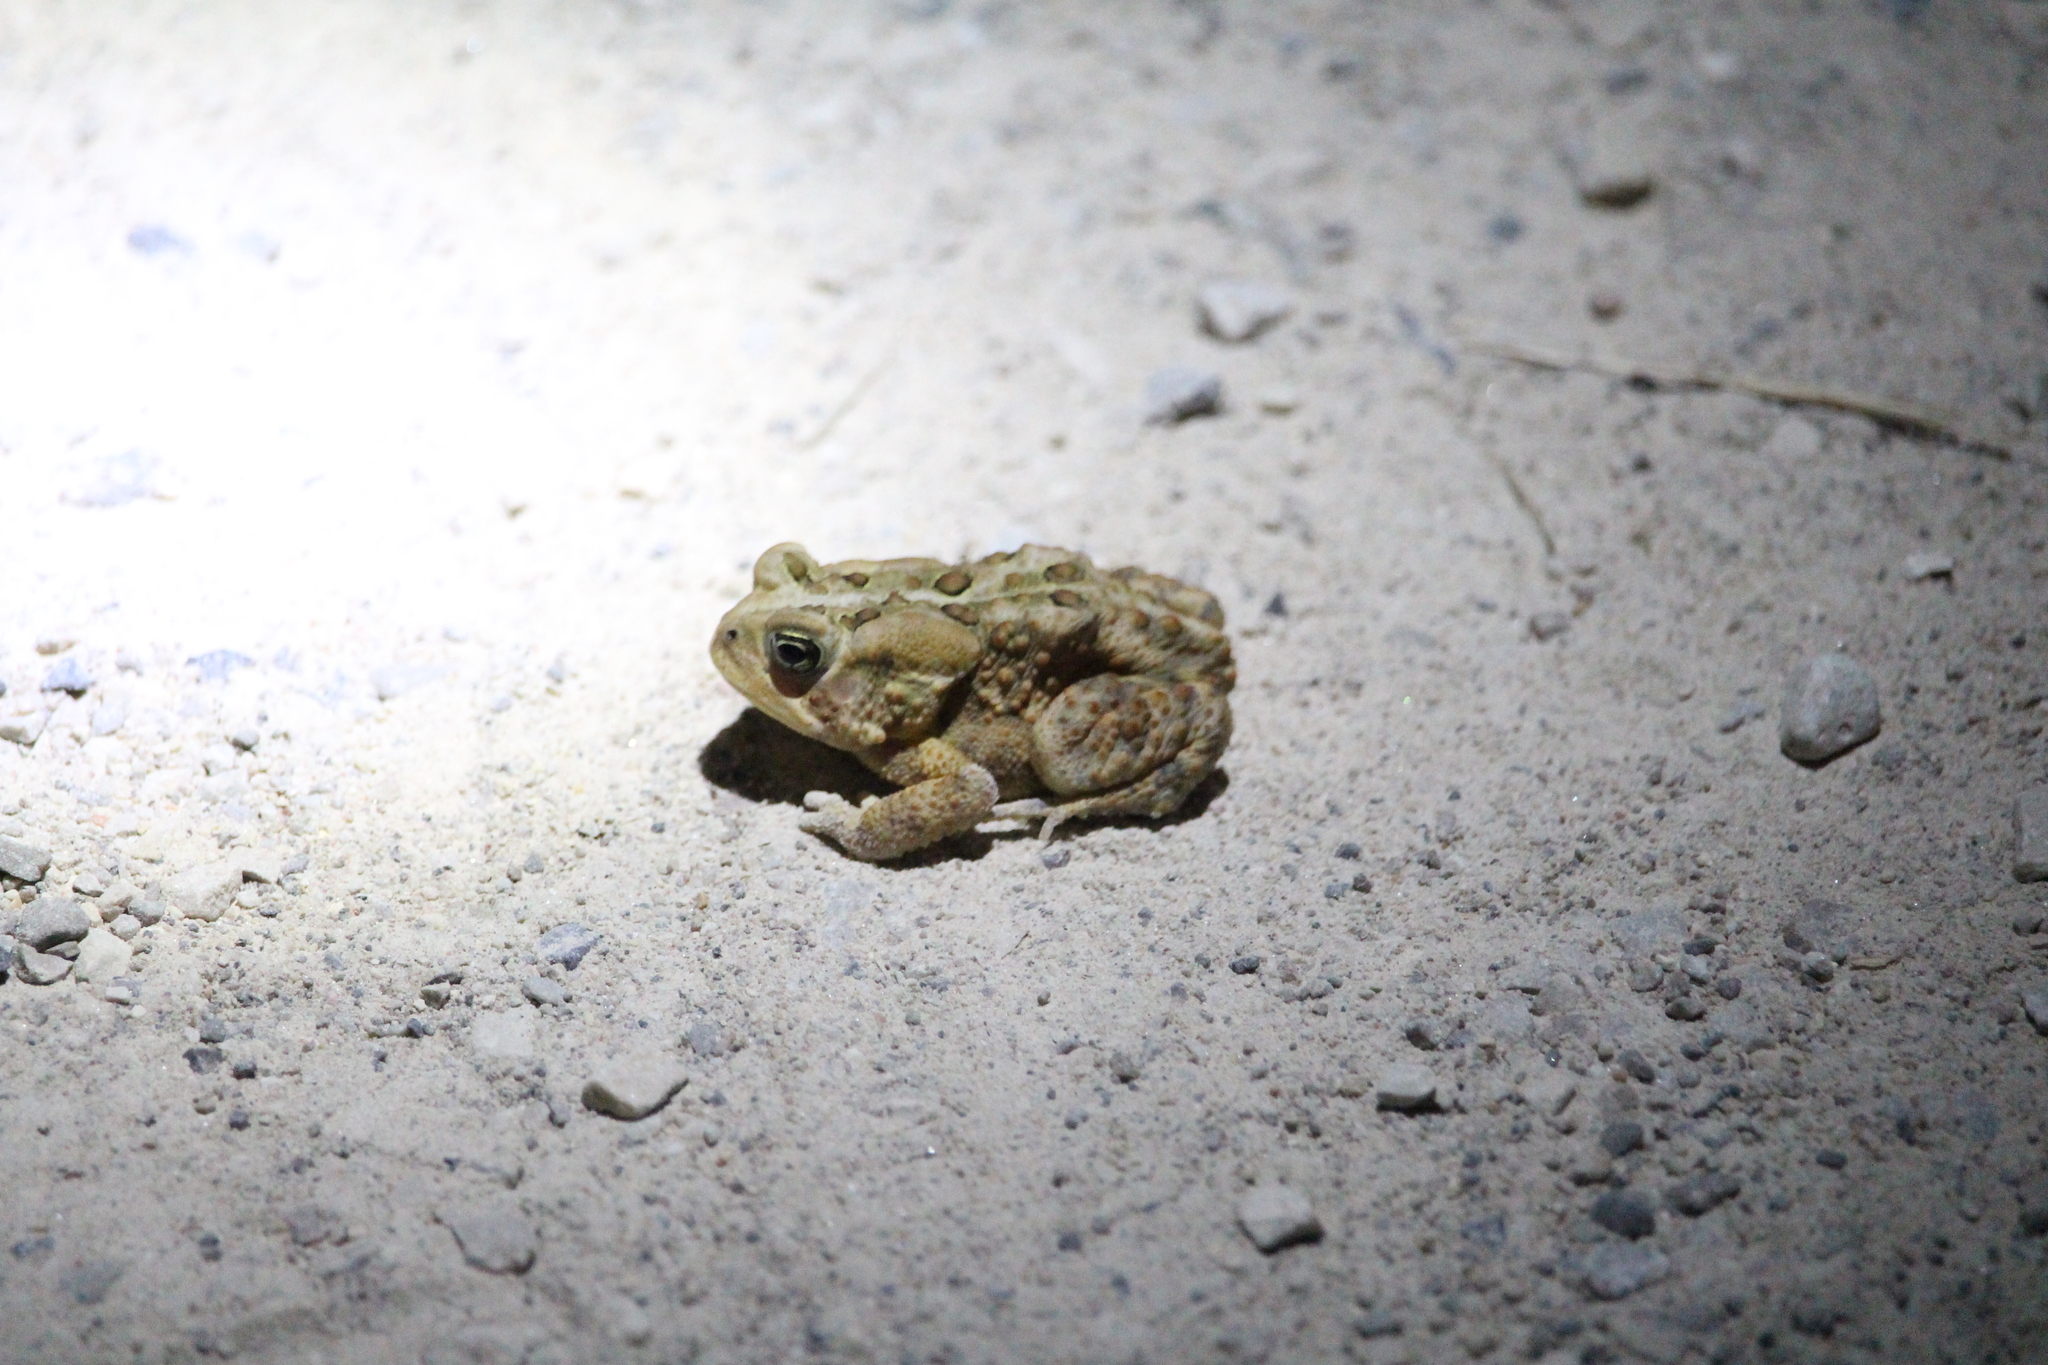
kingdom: Animalia
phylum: Chordata
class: Amphibia
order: Anura
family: Bufonidae
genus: Anaxyrus
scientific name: Anaxyrus americanus
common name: American toad
